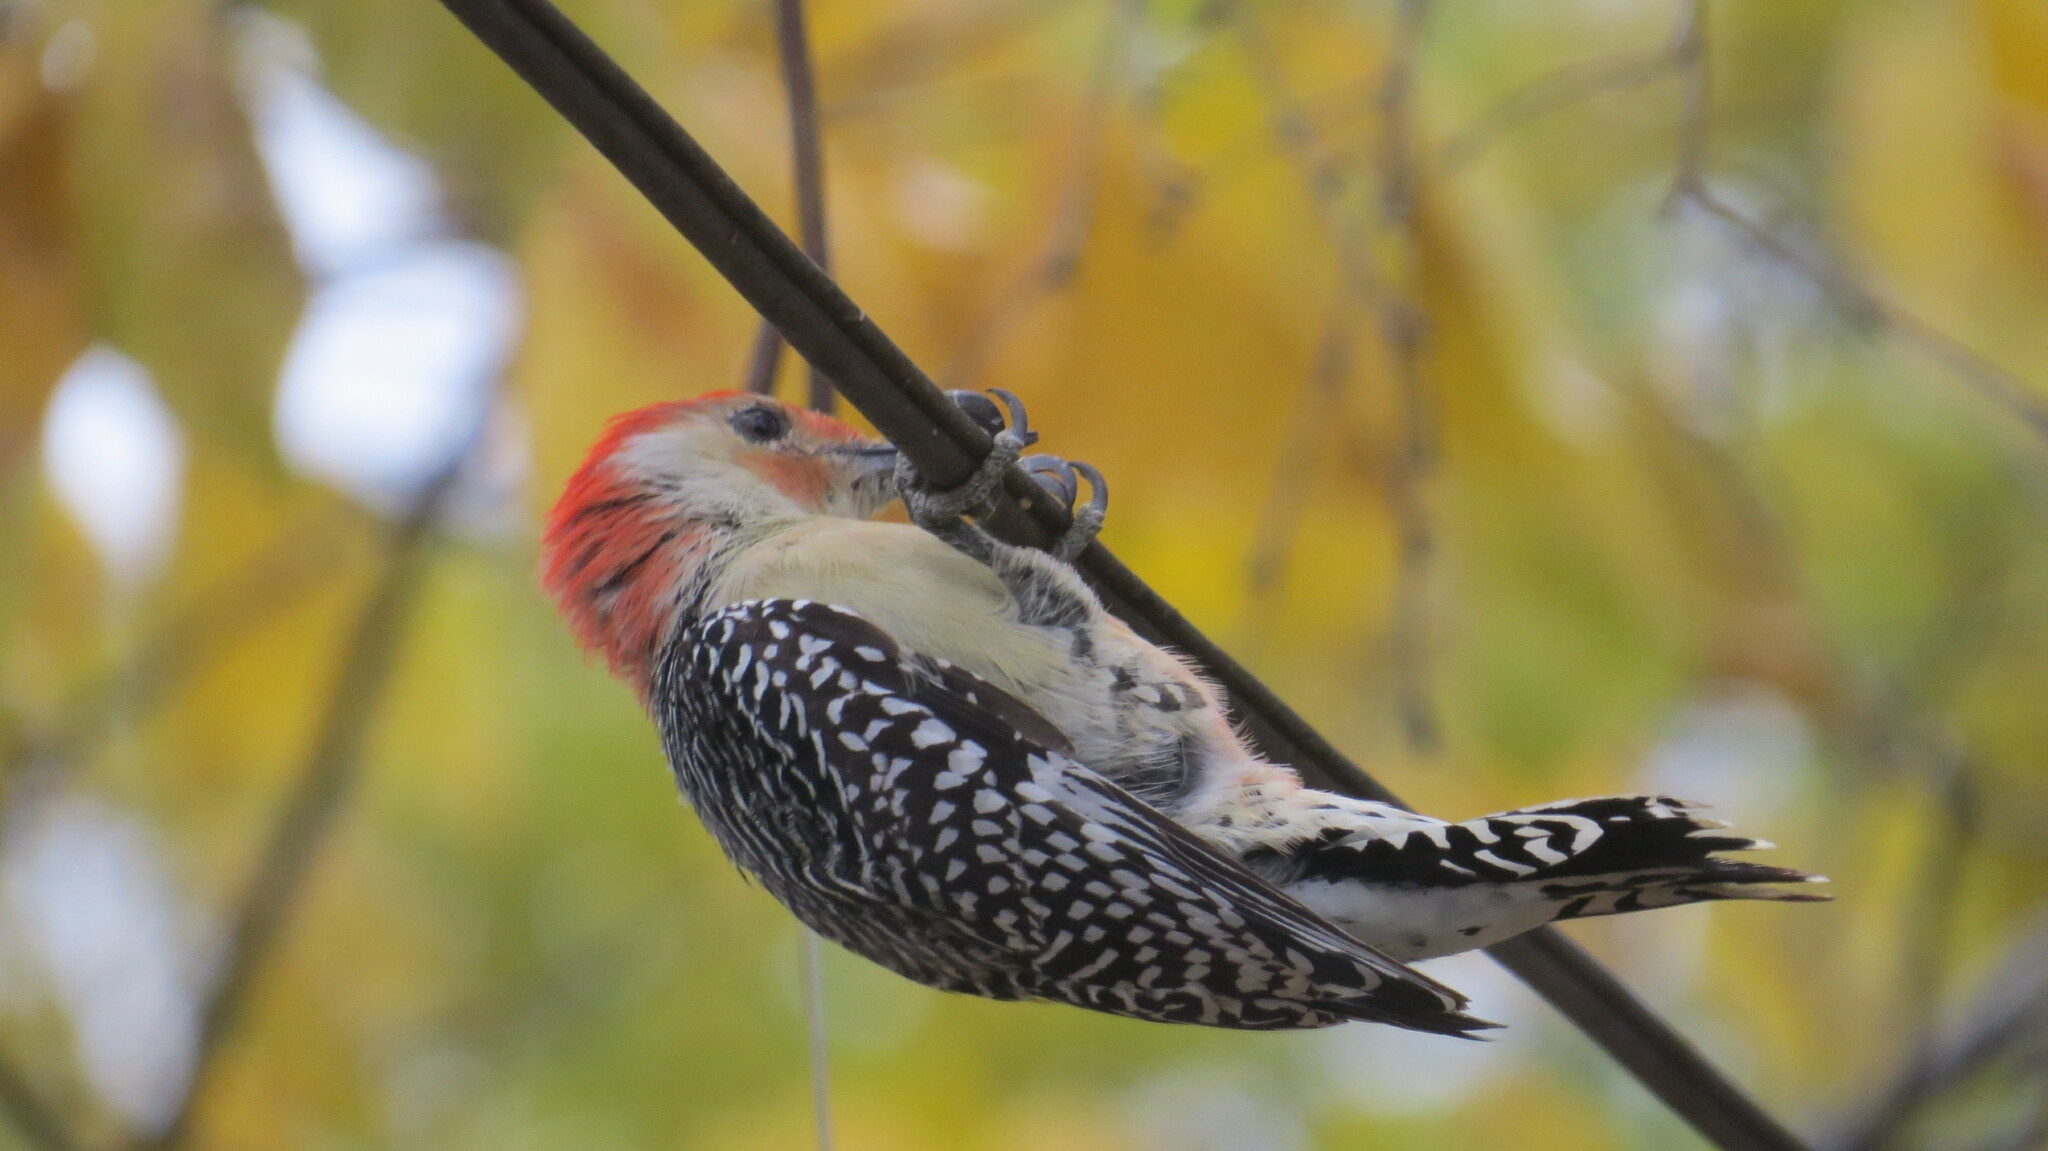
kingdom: Animalia
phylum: Chordata
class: Aves
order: Piciformes
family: Picidae
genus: Melanerpes
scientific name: Melanerpes carolinus
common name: Red-bellied woodpecker
